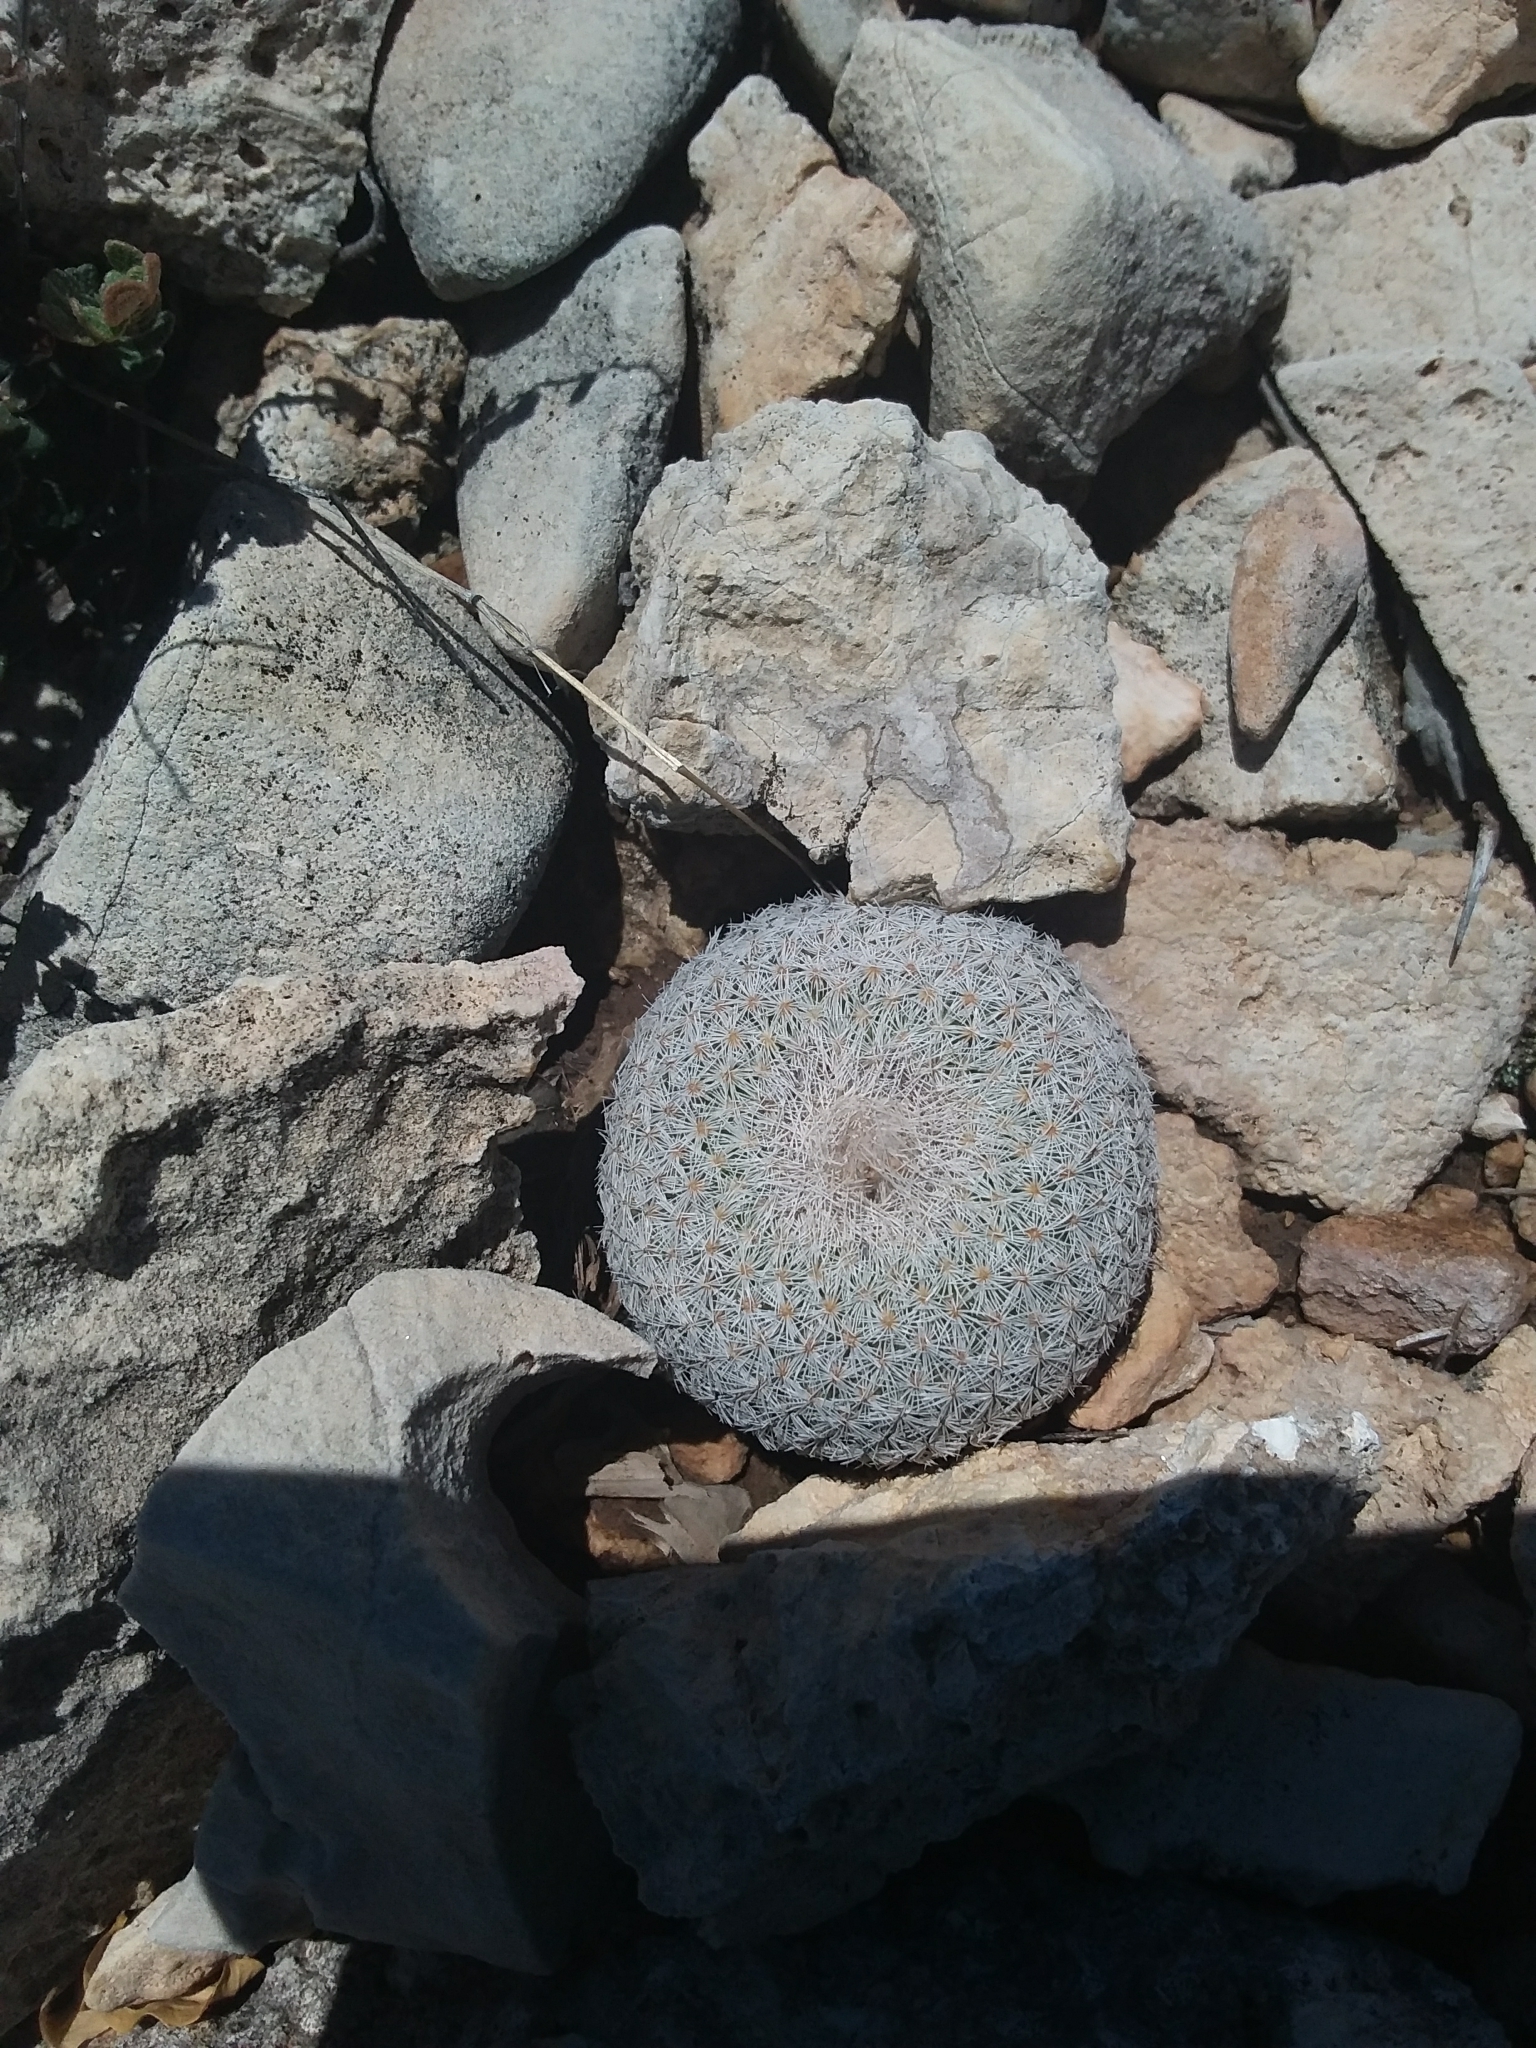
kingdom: Plantae
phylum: Tracheophyta
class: Magnoliopsida
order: Caryophyllales
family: Cactaceae
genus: Epithelantha
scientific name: Epithelantha micromeris
